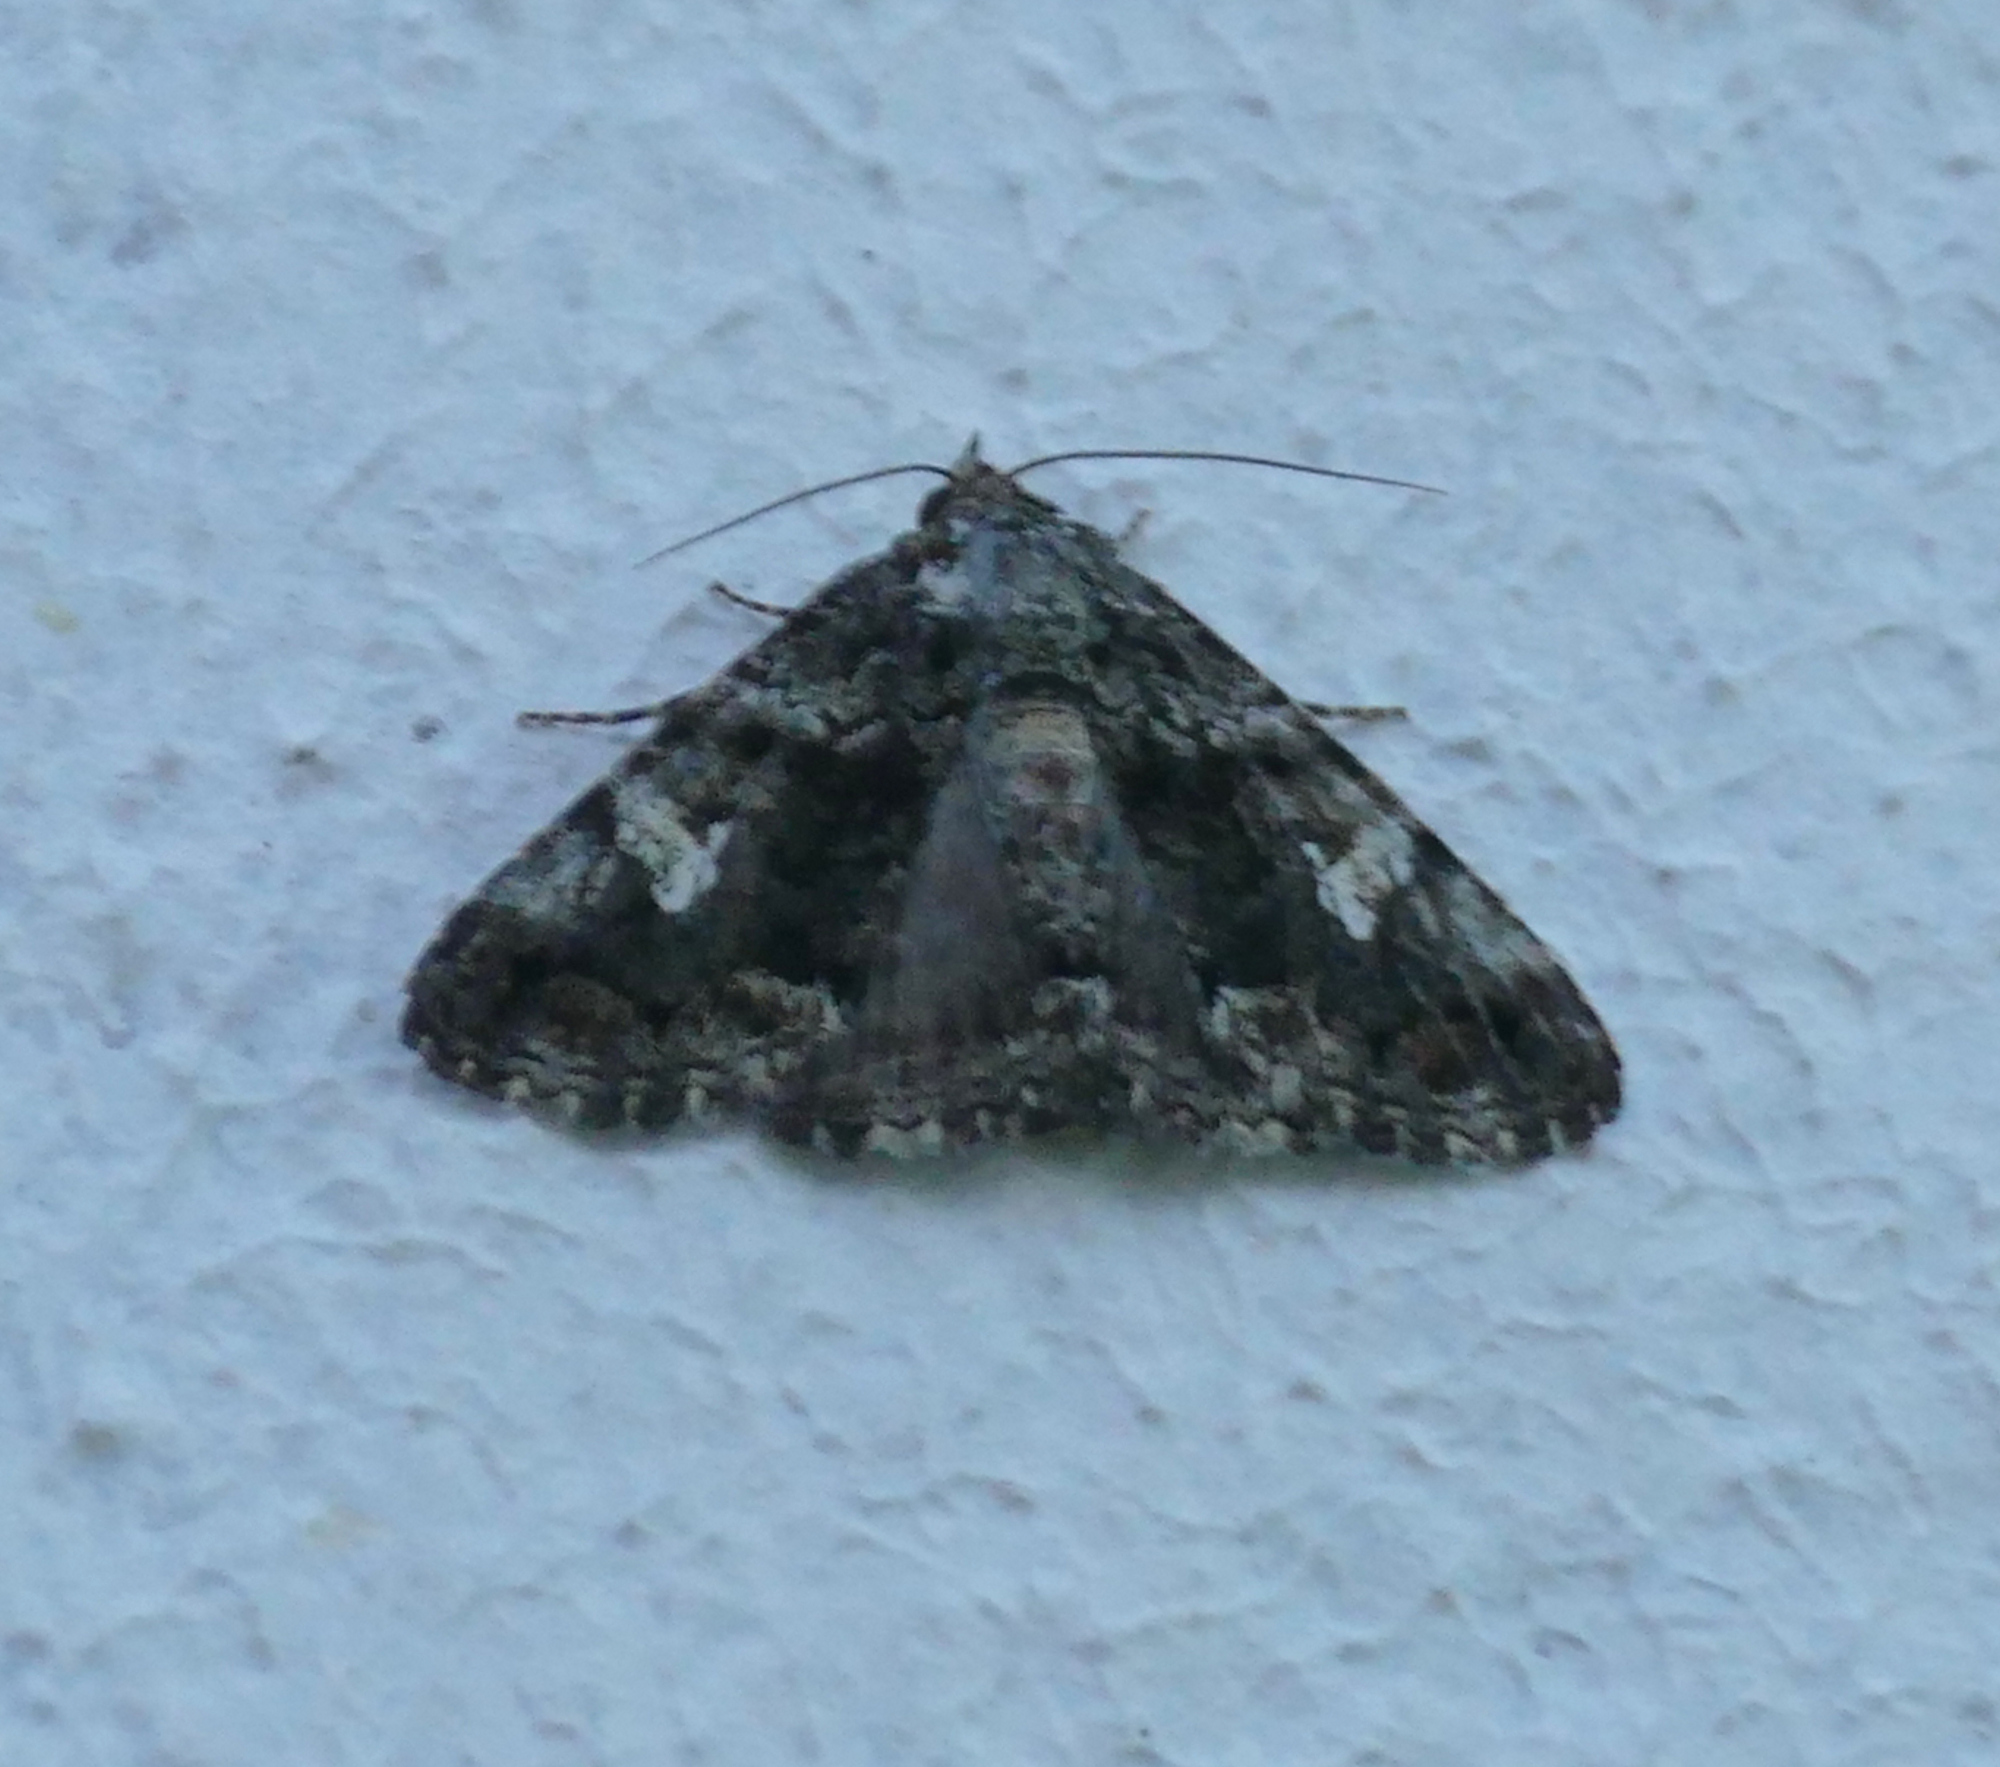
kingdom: Animalia
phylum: Arthropoda
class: Insecta
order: Lepidoptera
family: Erebidae
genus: Metria
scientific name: Metria amella
